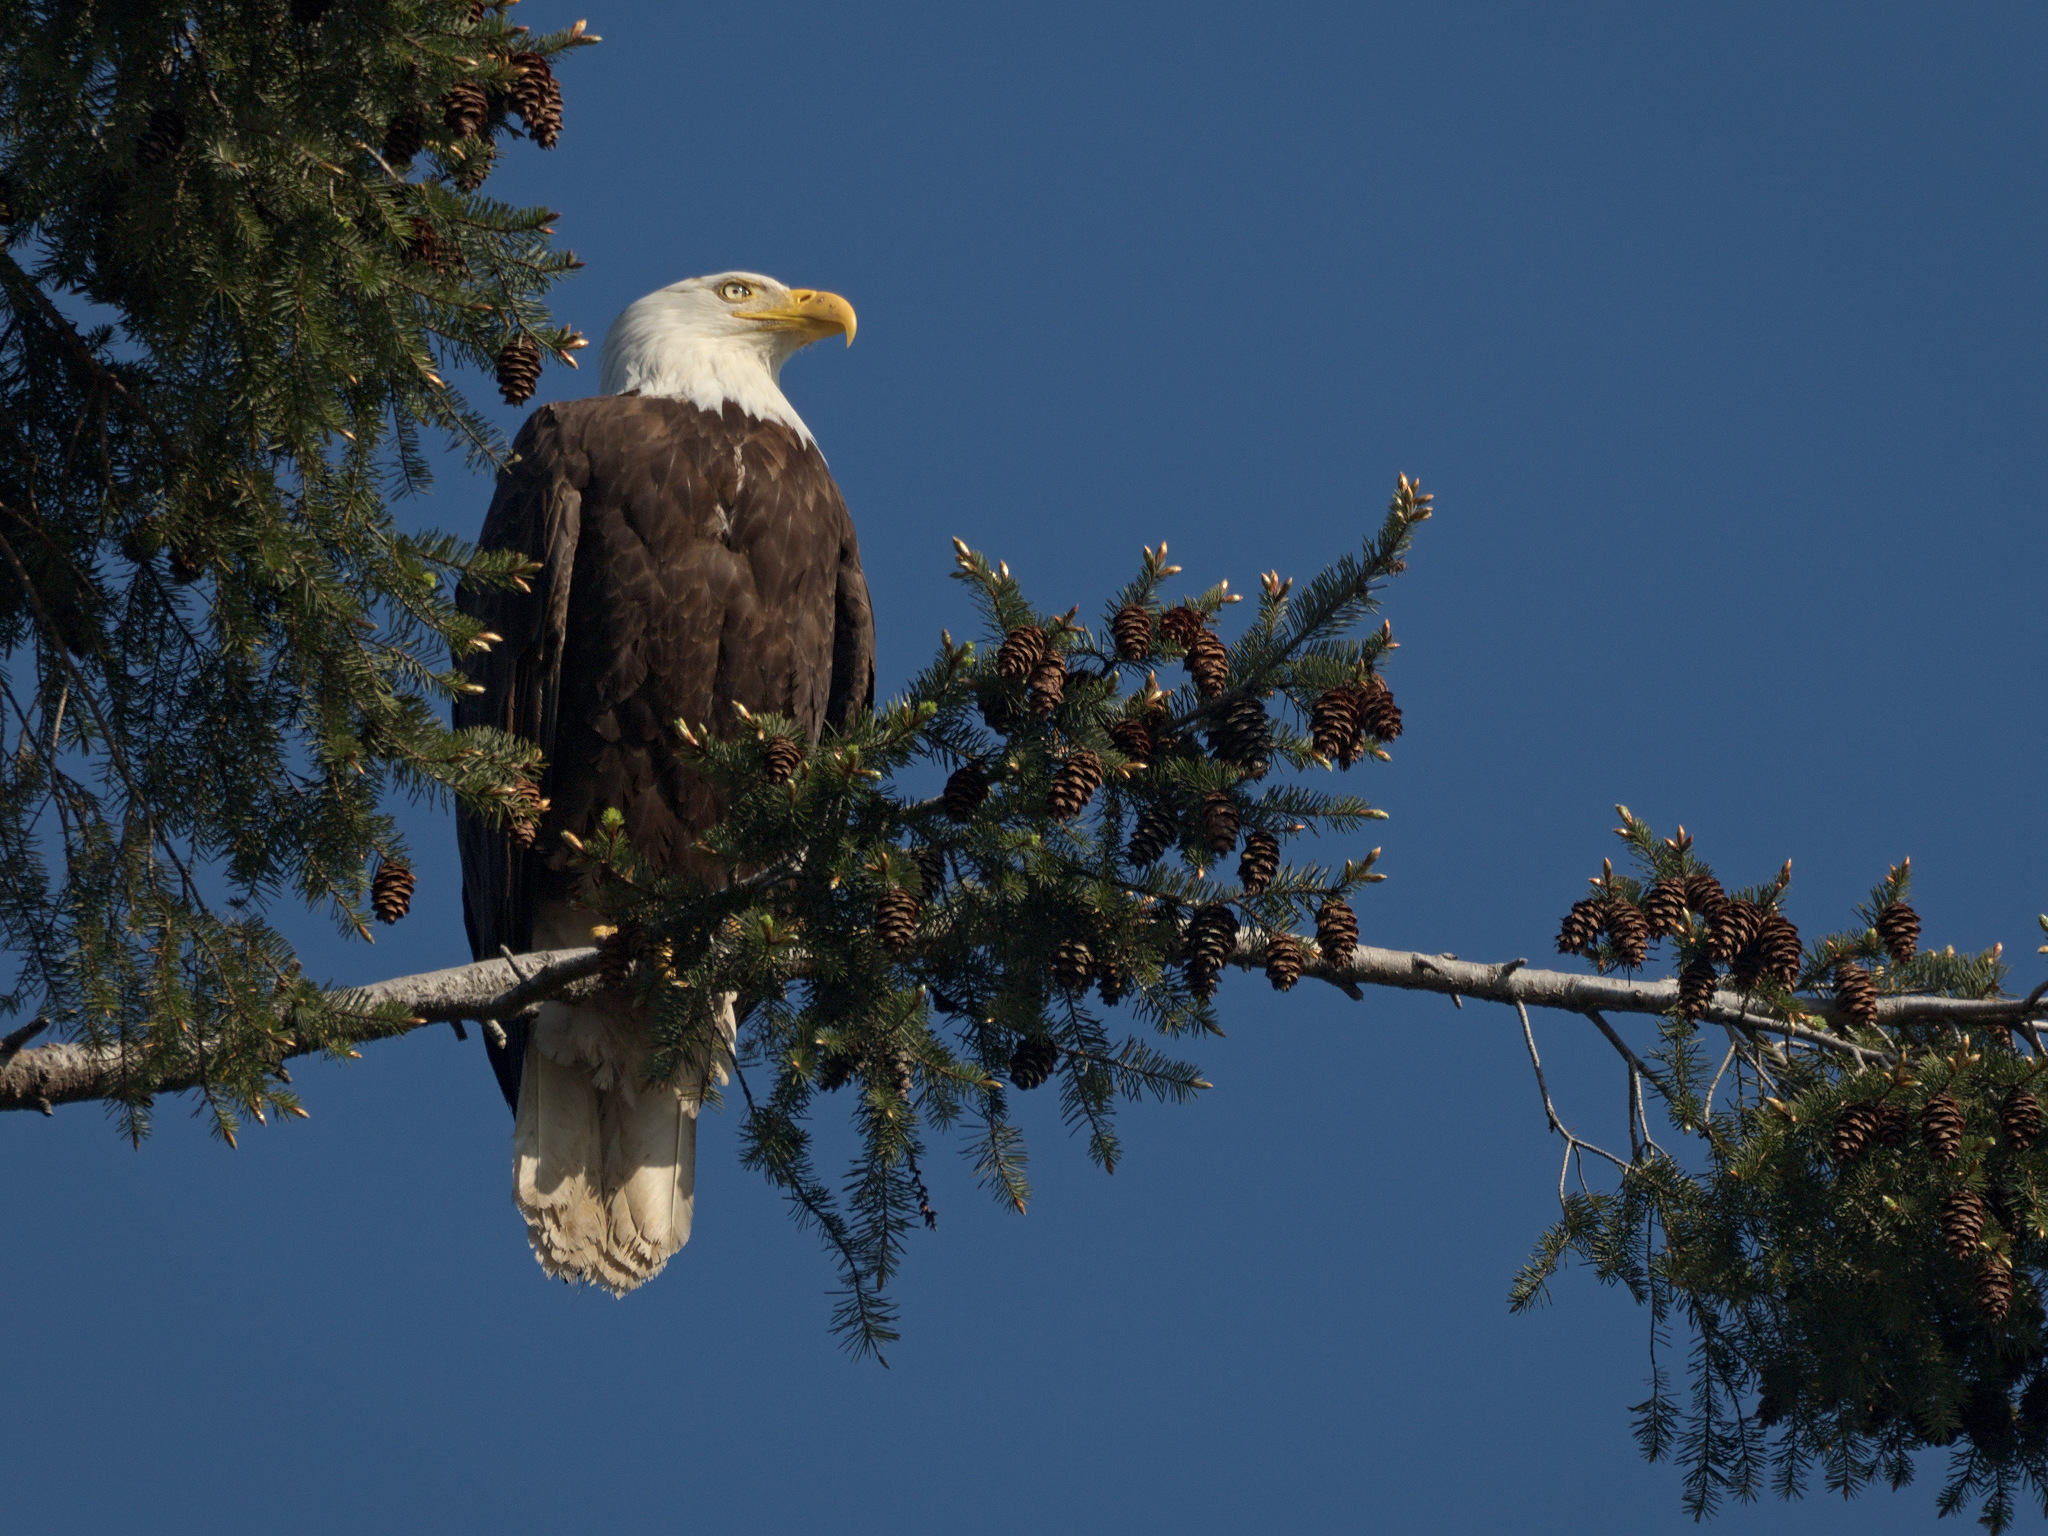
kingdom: Animalia
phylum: Chordata
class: Aves
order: Accipitriformes
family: Accipitridae
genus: Haliaeetus
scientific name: Haliaeetus leucocephalus
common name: Bald eagle
